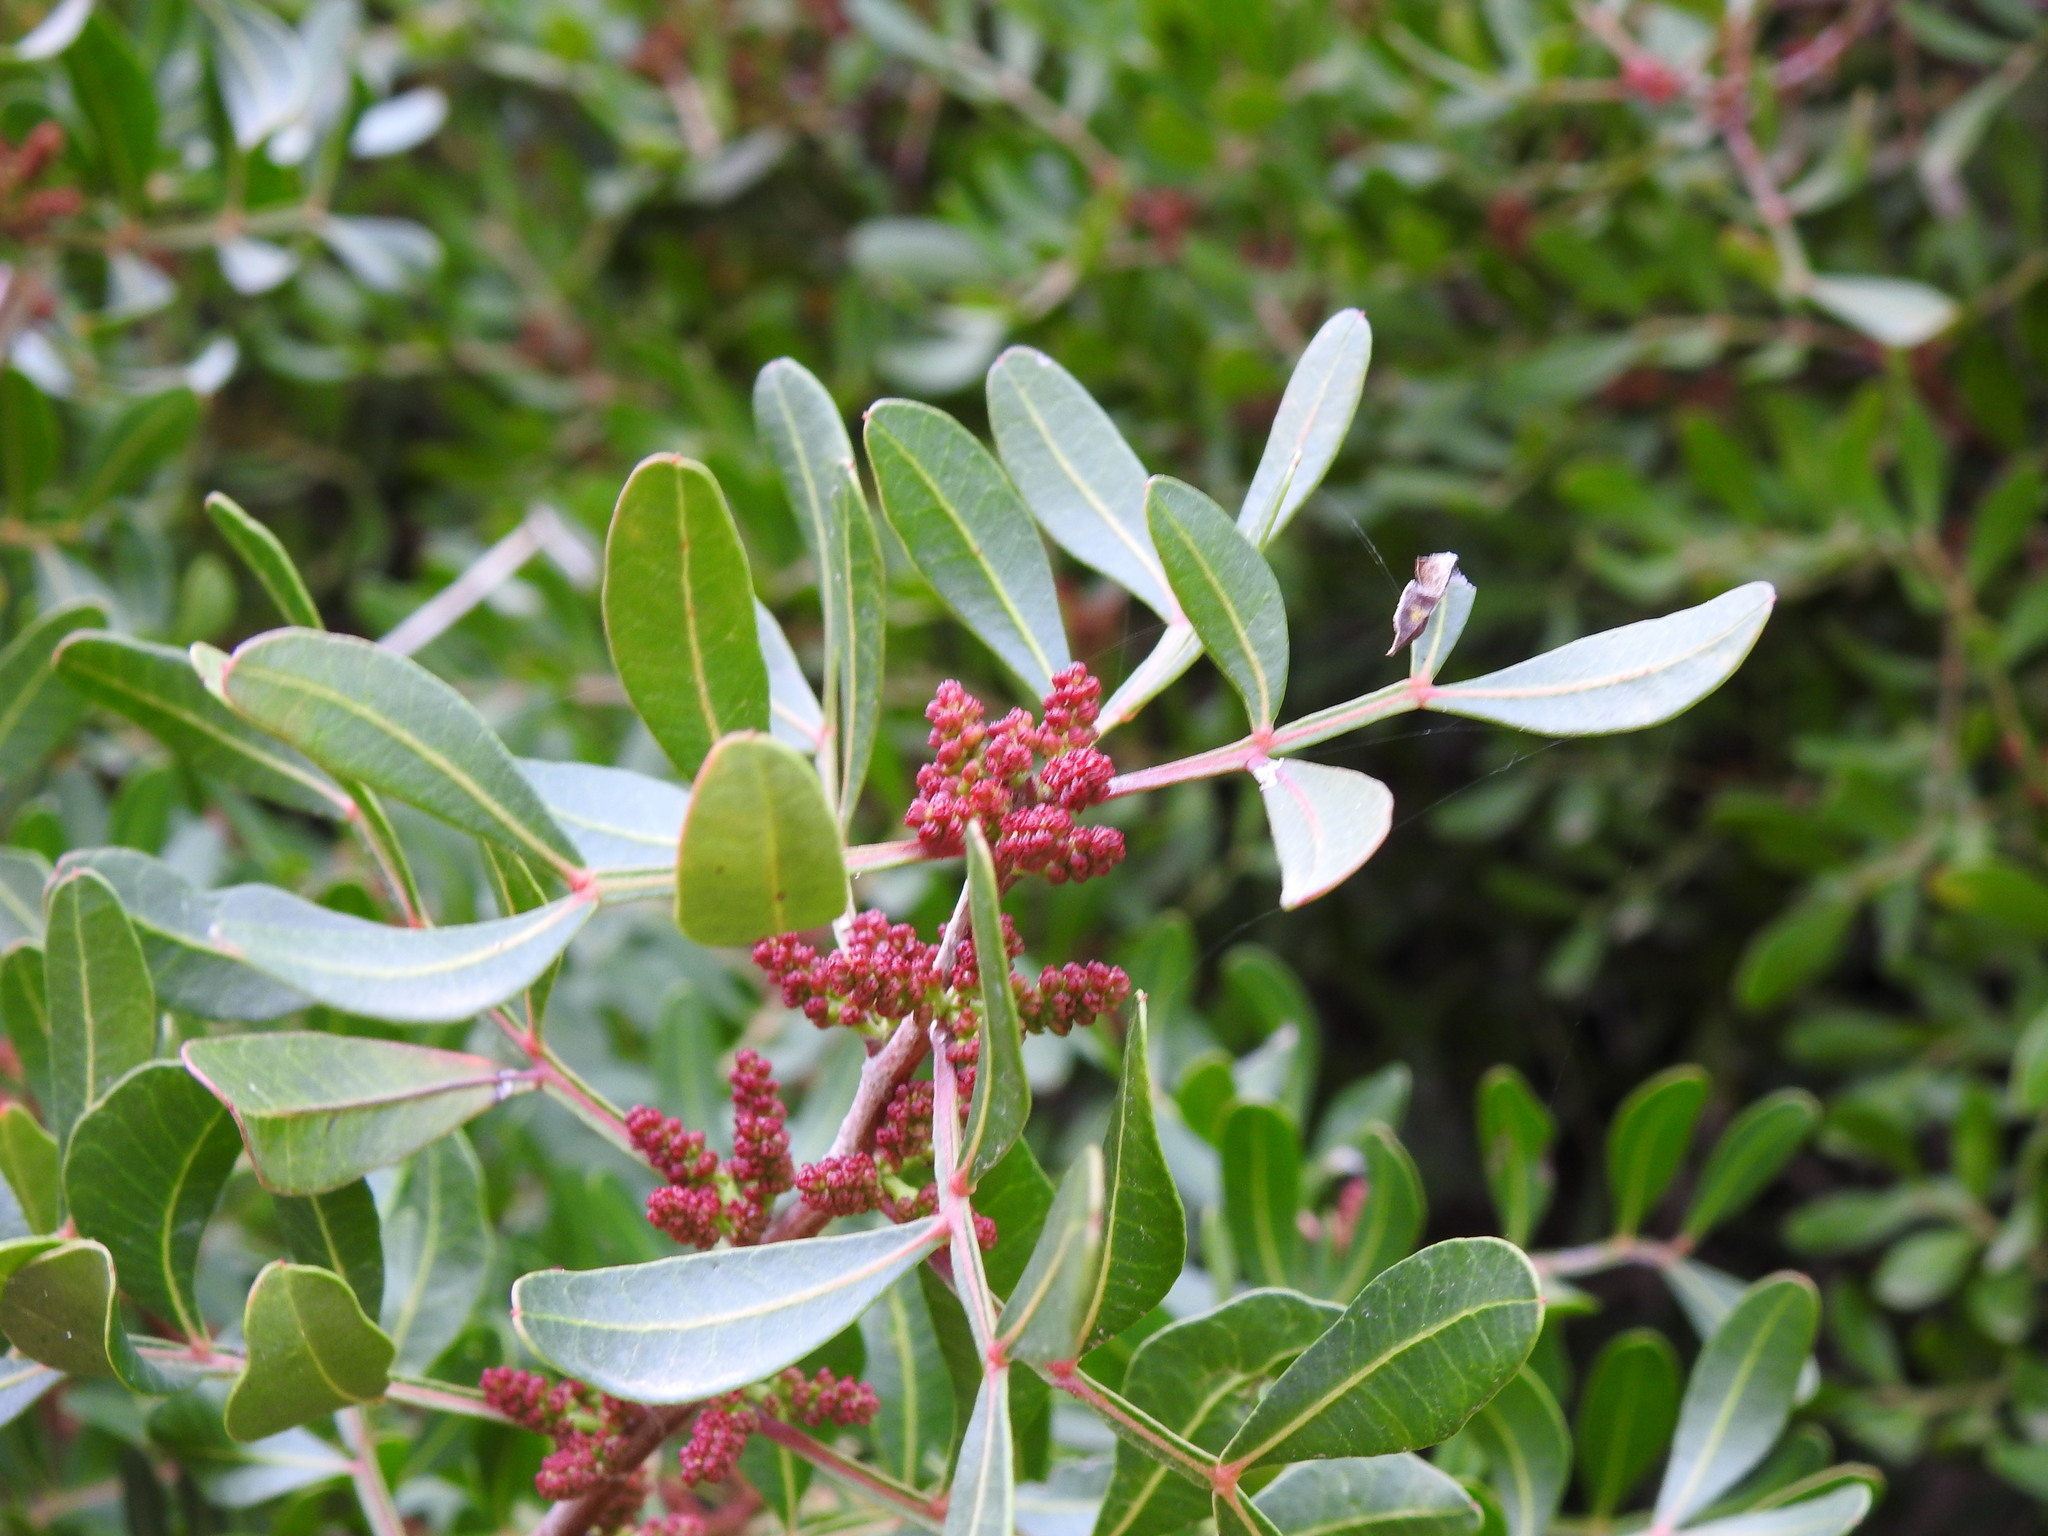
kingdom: Plantae
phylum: Tracheophyta
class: Magnoliopsida
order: Sapindales
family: Anacardiaceae
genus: Pistacia
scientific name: Pistacia lentiscus
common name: Lentisk
